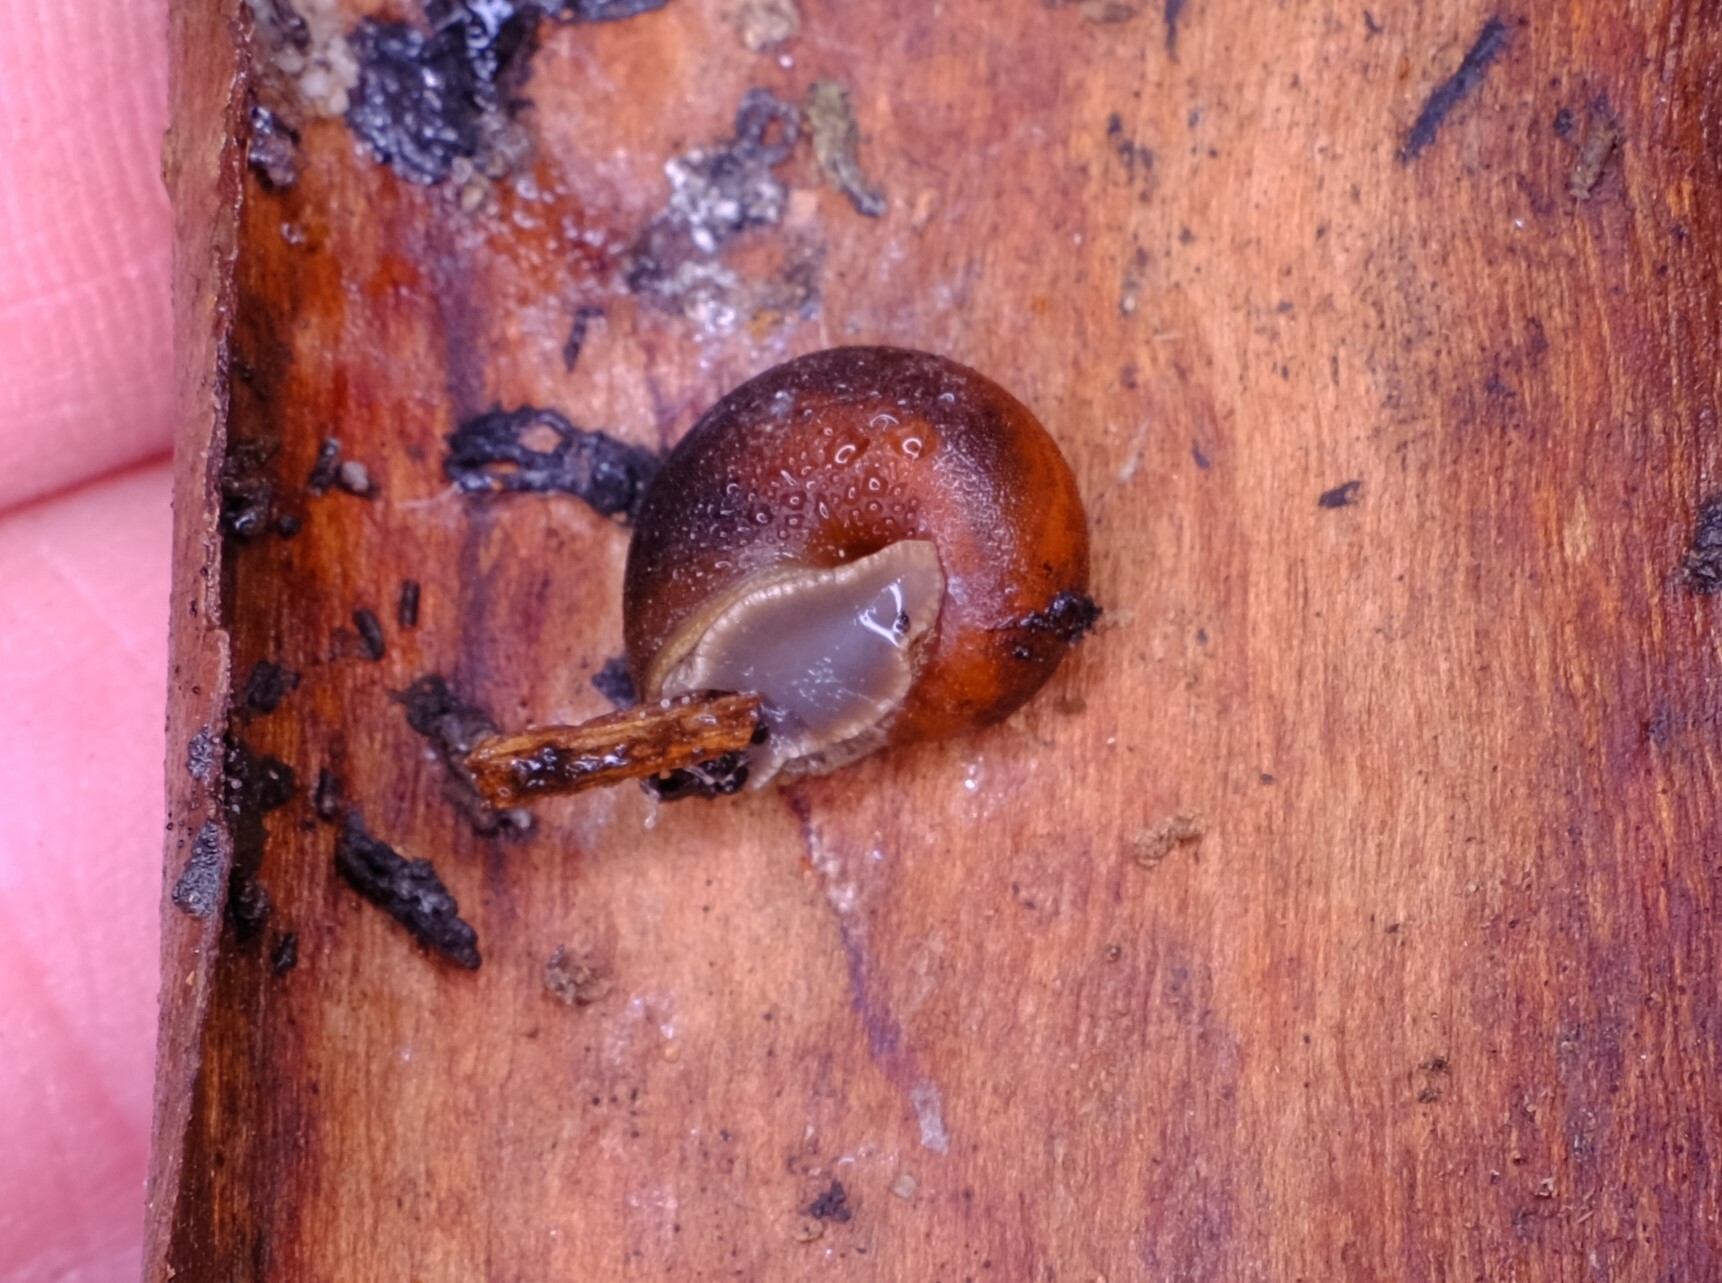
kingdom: Animalia
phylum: Mollusca
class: Gastropoda
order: Stylommatophora
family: Camaenidae
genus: Chloritobadistes
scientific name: Chloritobadistes victoriae
